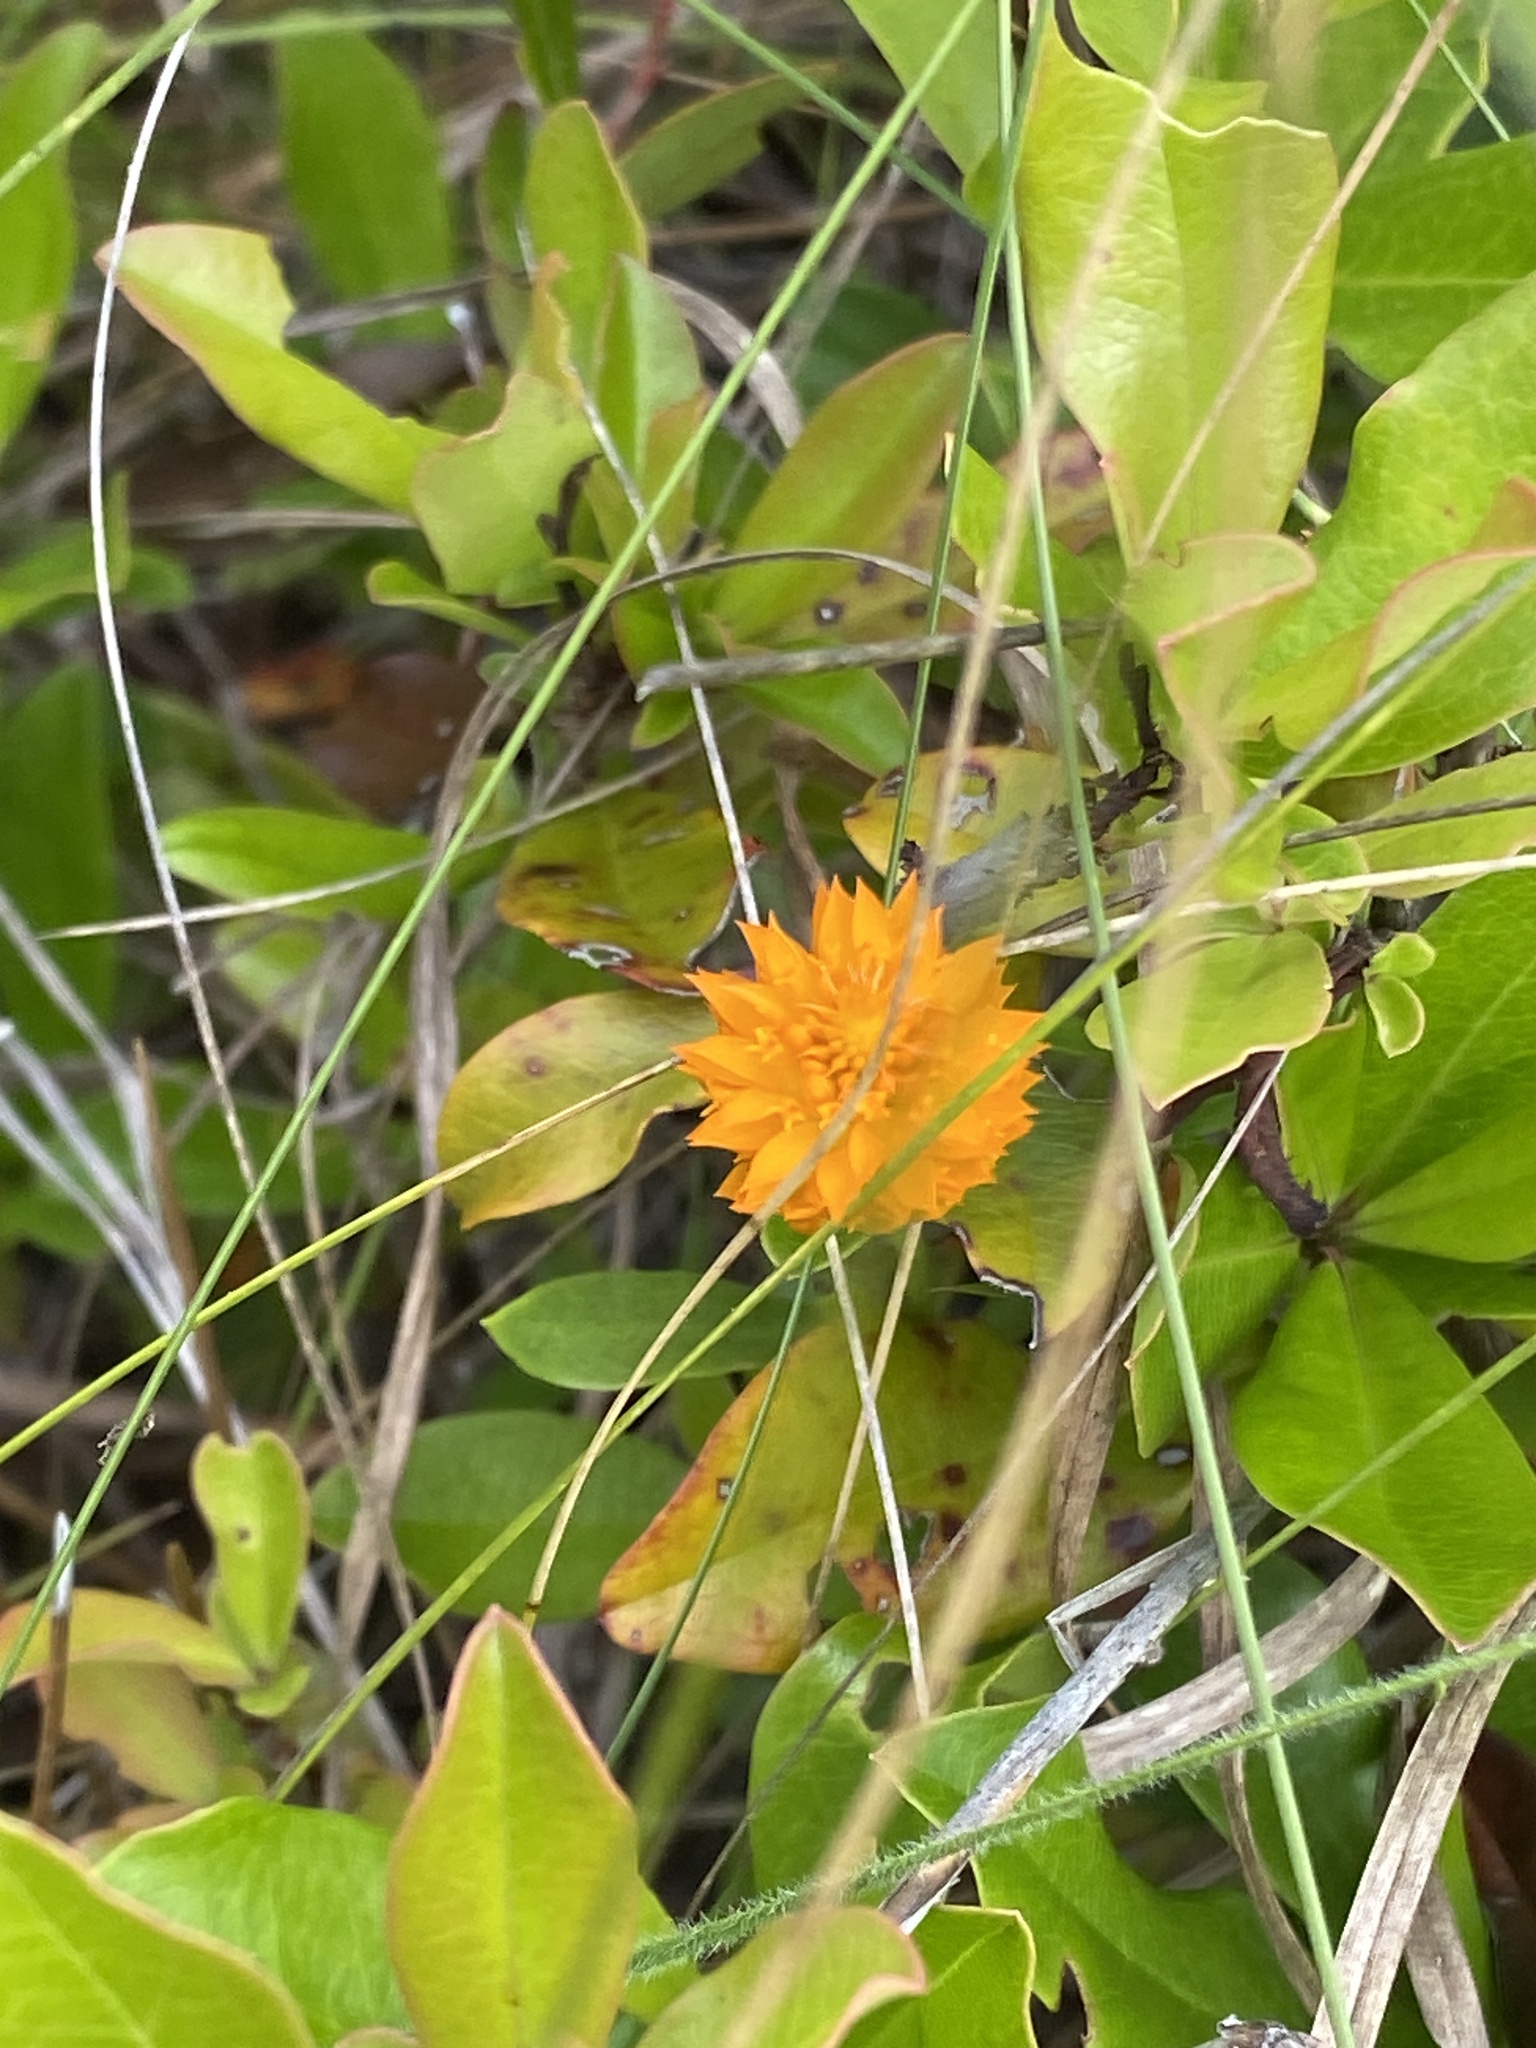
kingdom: Plantae
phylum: Tracheophyta
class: Magnoliopsida
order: Fabales
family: Polygalaceae
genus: Polygala
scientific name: Polygala lutea
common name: Orange milkwort
